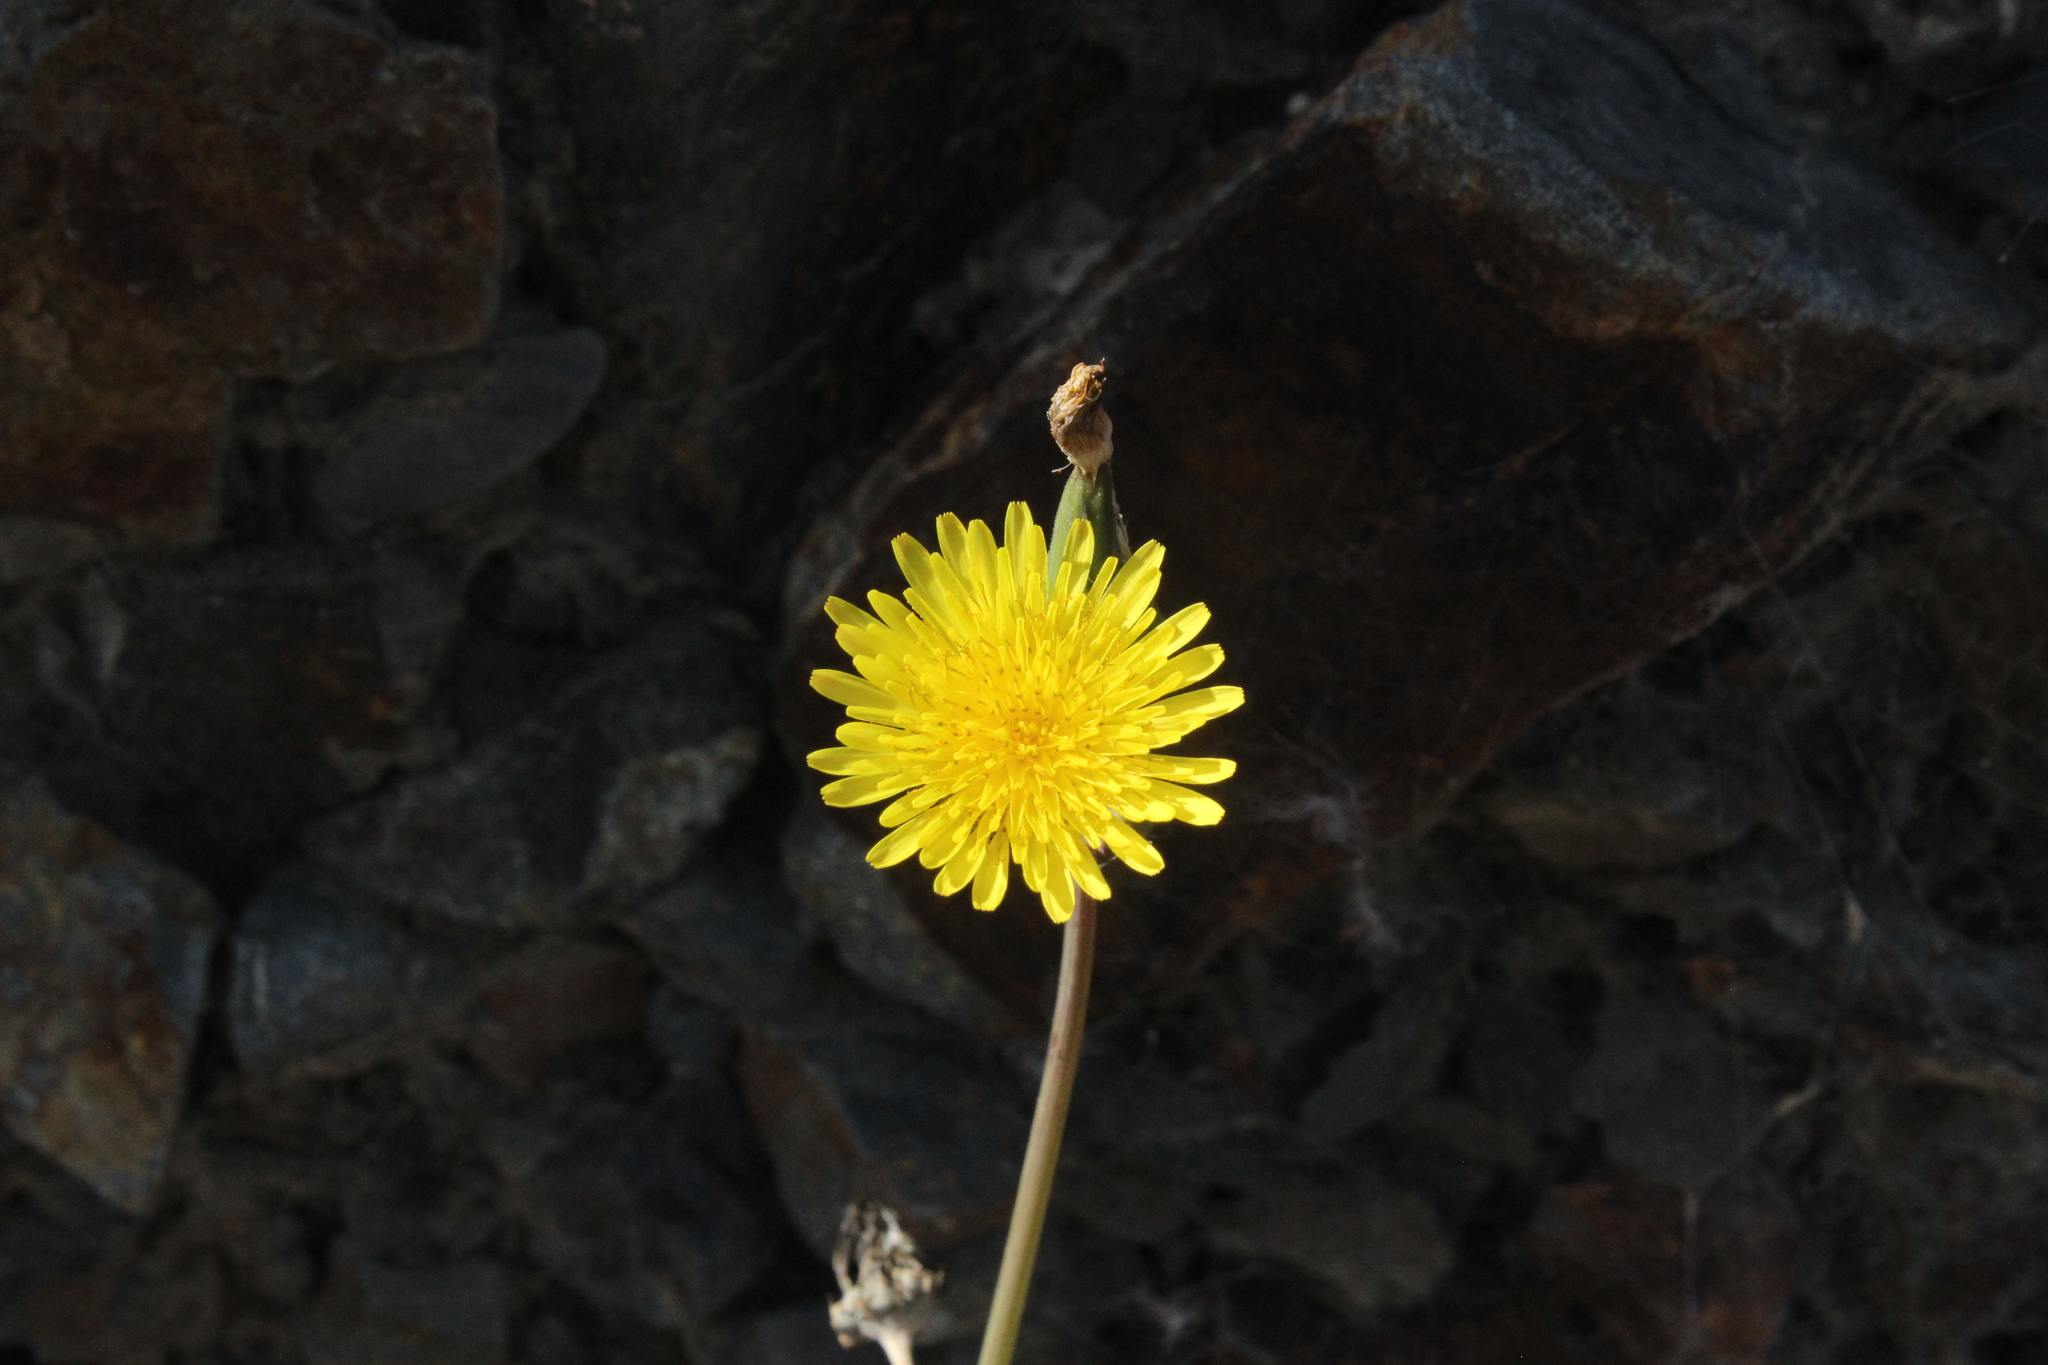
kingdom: Plantae
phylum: Tracheophyta
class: Magnoliopsida
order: Asterales
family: Asteraceae
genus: Sonchus
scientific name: Sonchus oleraceus
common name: Common sowthistle
